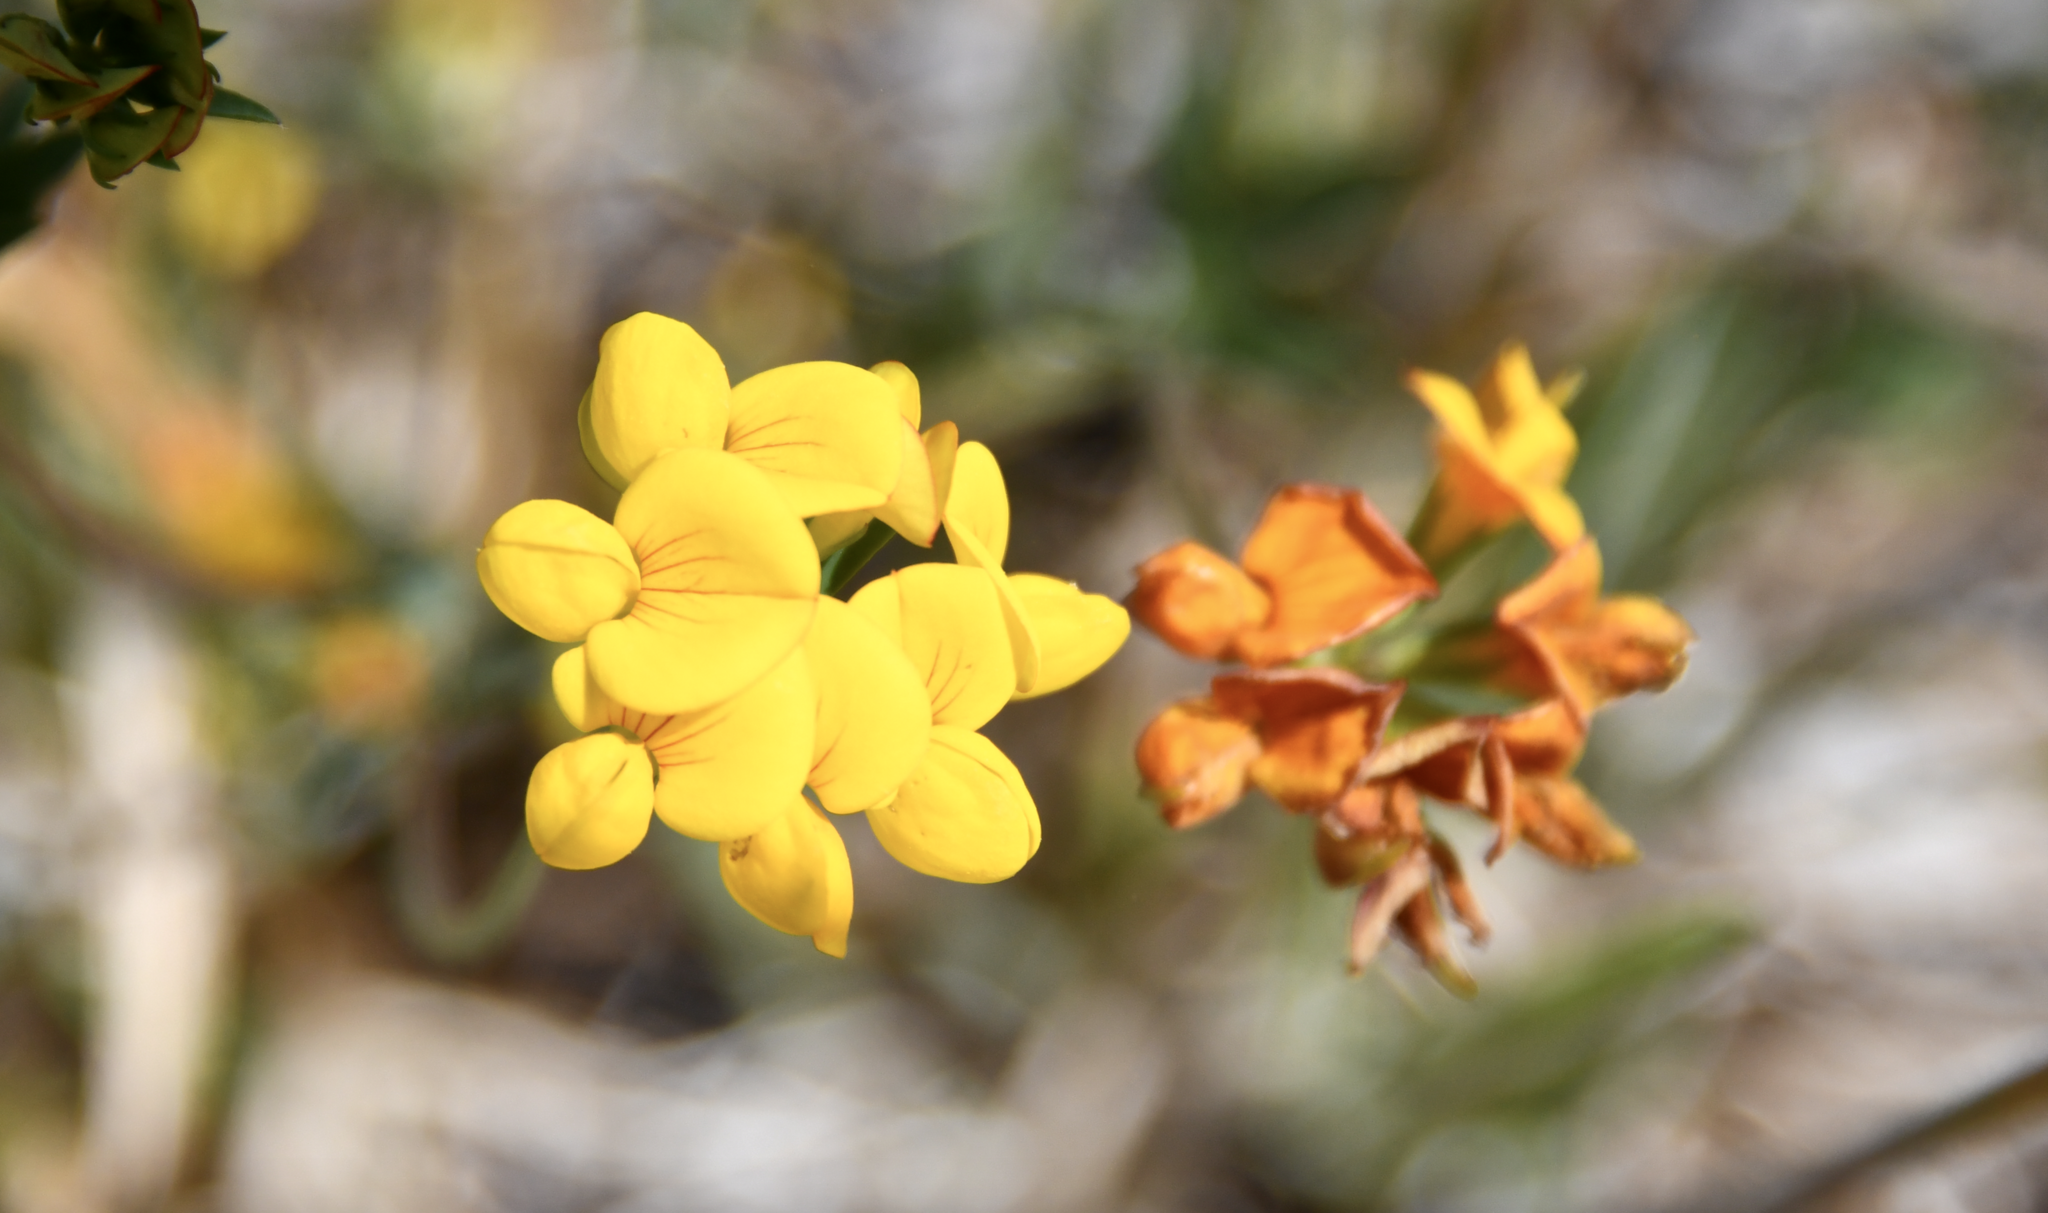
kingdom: Plantae
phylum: Tracheophyta
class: Magnoliopsida
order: Fabales
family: Fabaceae
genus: Lotus
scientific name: Lotus corniculatus
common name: Common bird's-foot-trefoil
